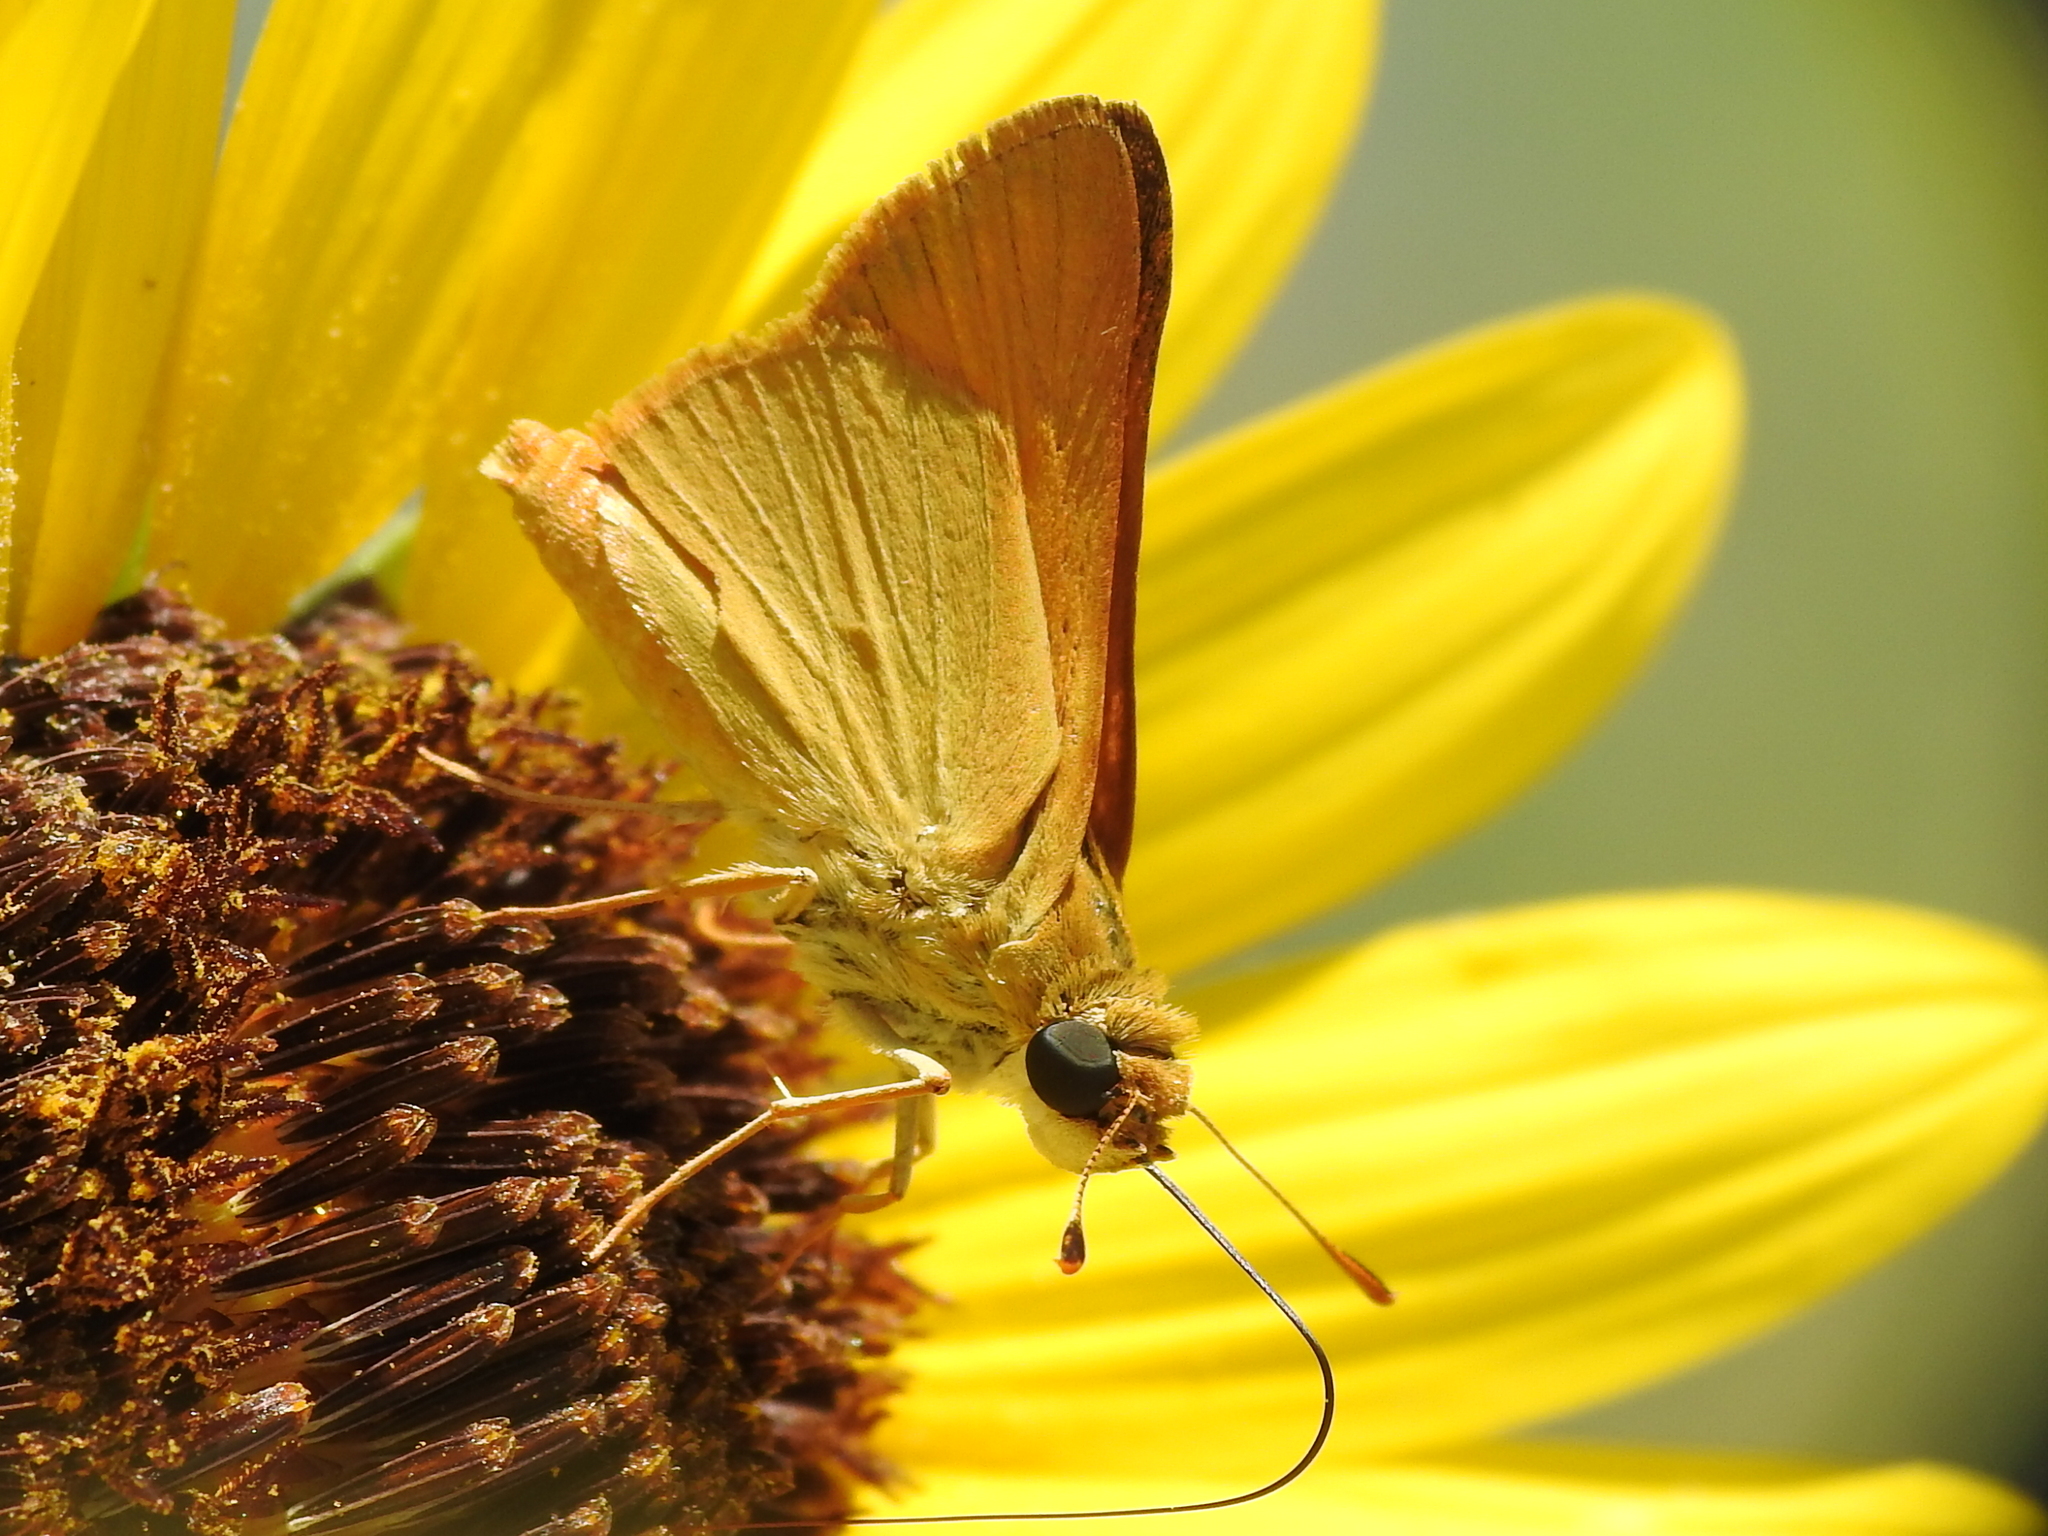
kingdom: Animalia
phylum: Arthropoda
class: Insecta
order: Lepidoptera
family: Hesperiidae
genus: Atrytone
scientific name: Atrytone delaware
